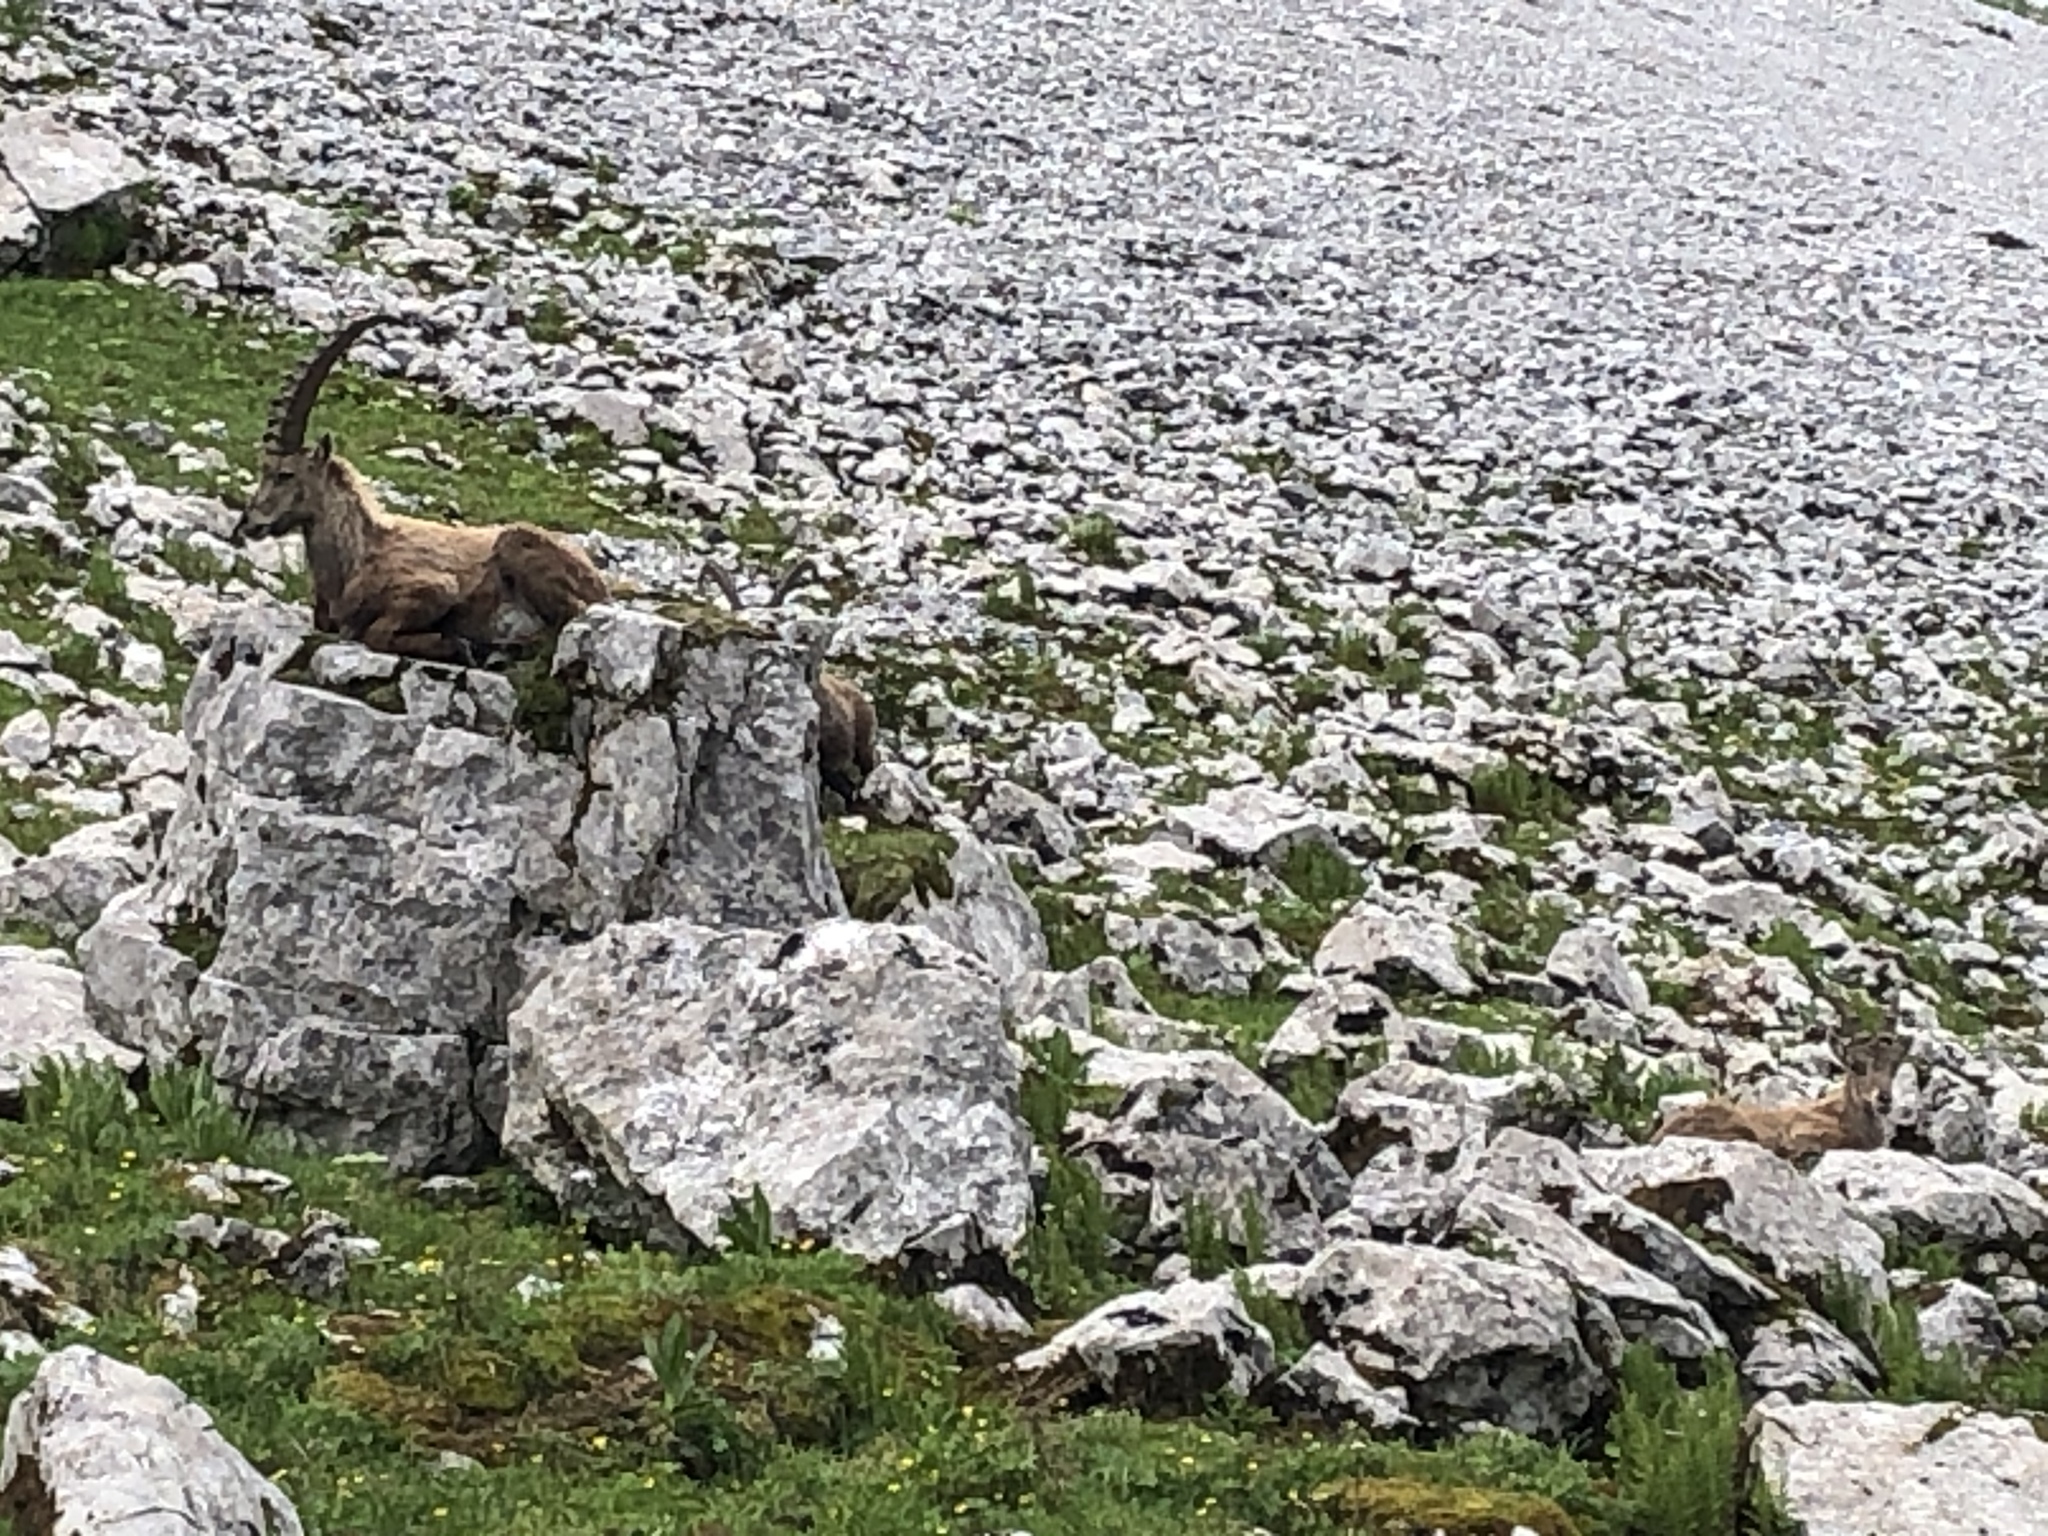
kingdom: Animalia
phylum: Chordata
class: Mammalia
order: Artiodactyla
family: Bovidae
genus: Capra
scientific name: Capra ibex
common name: Alpine ibex
